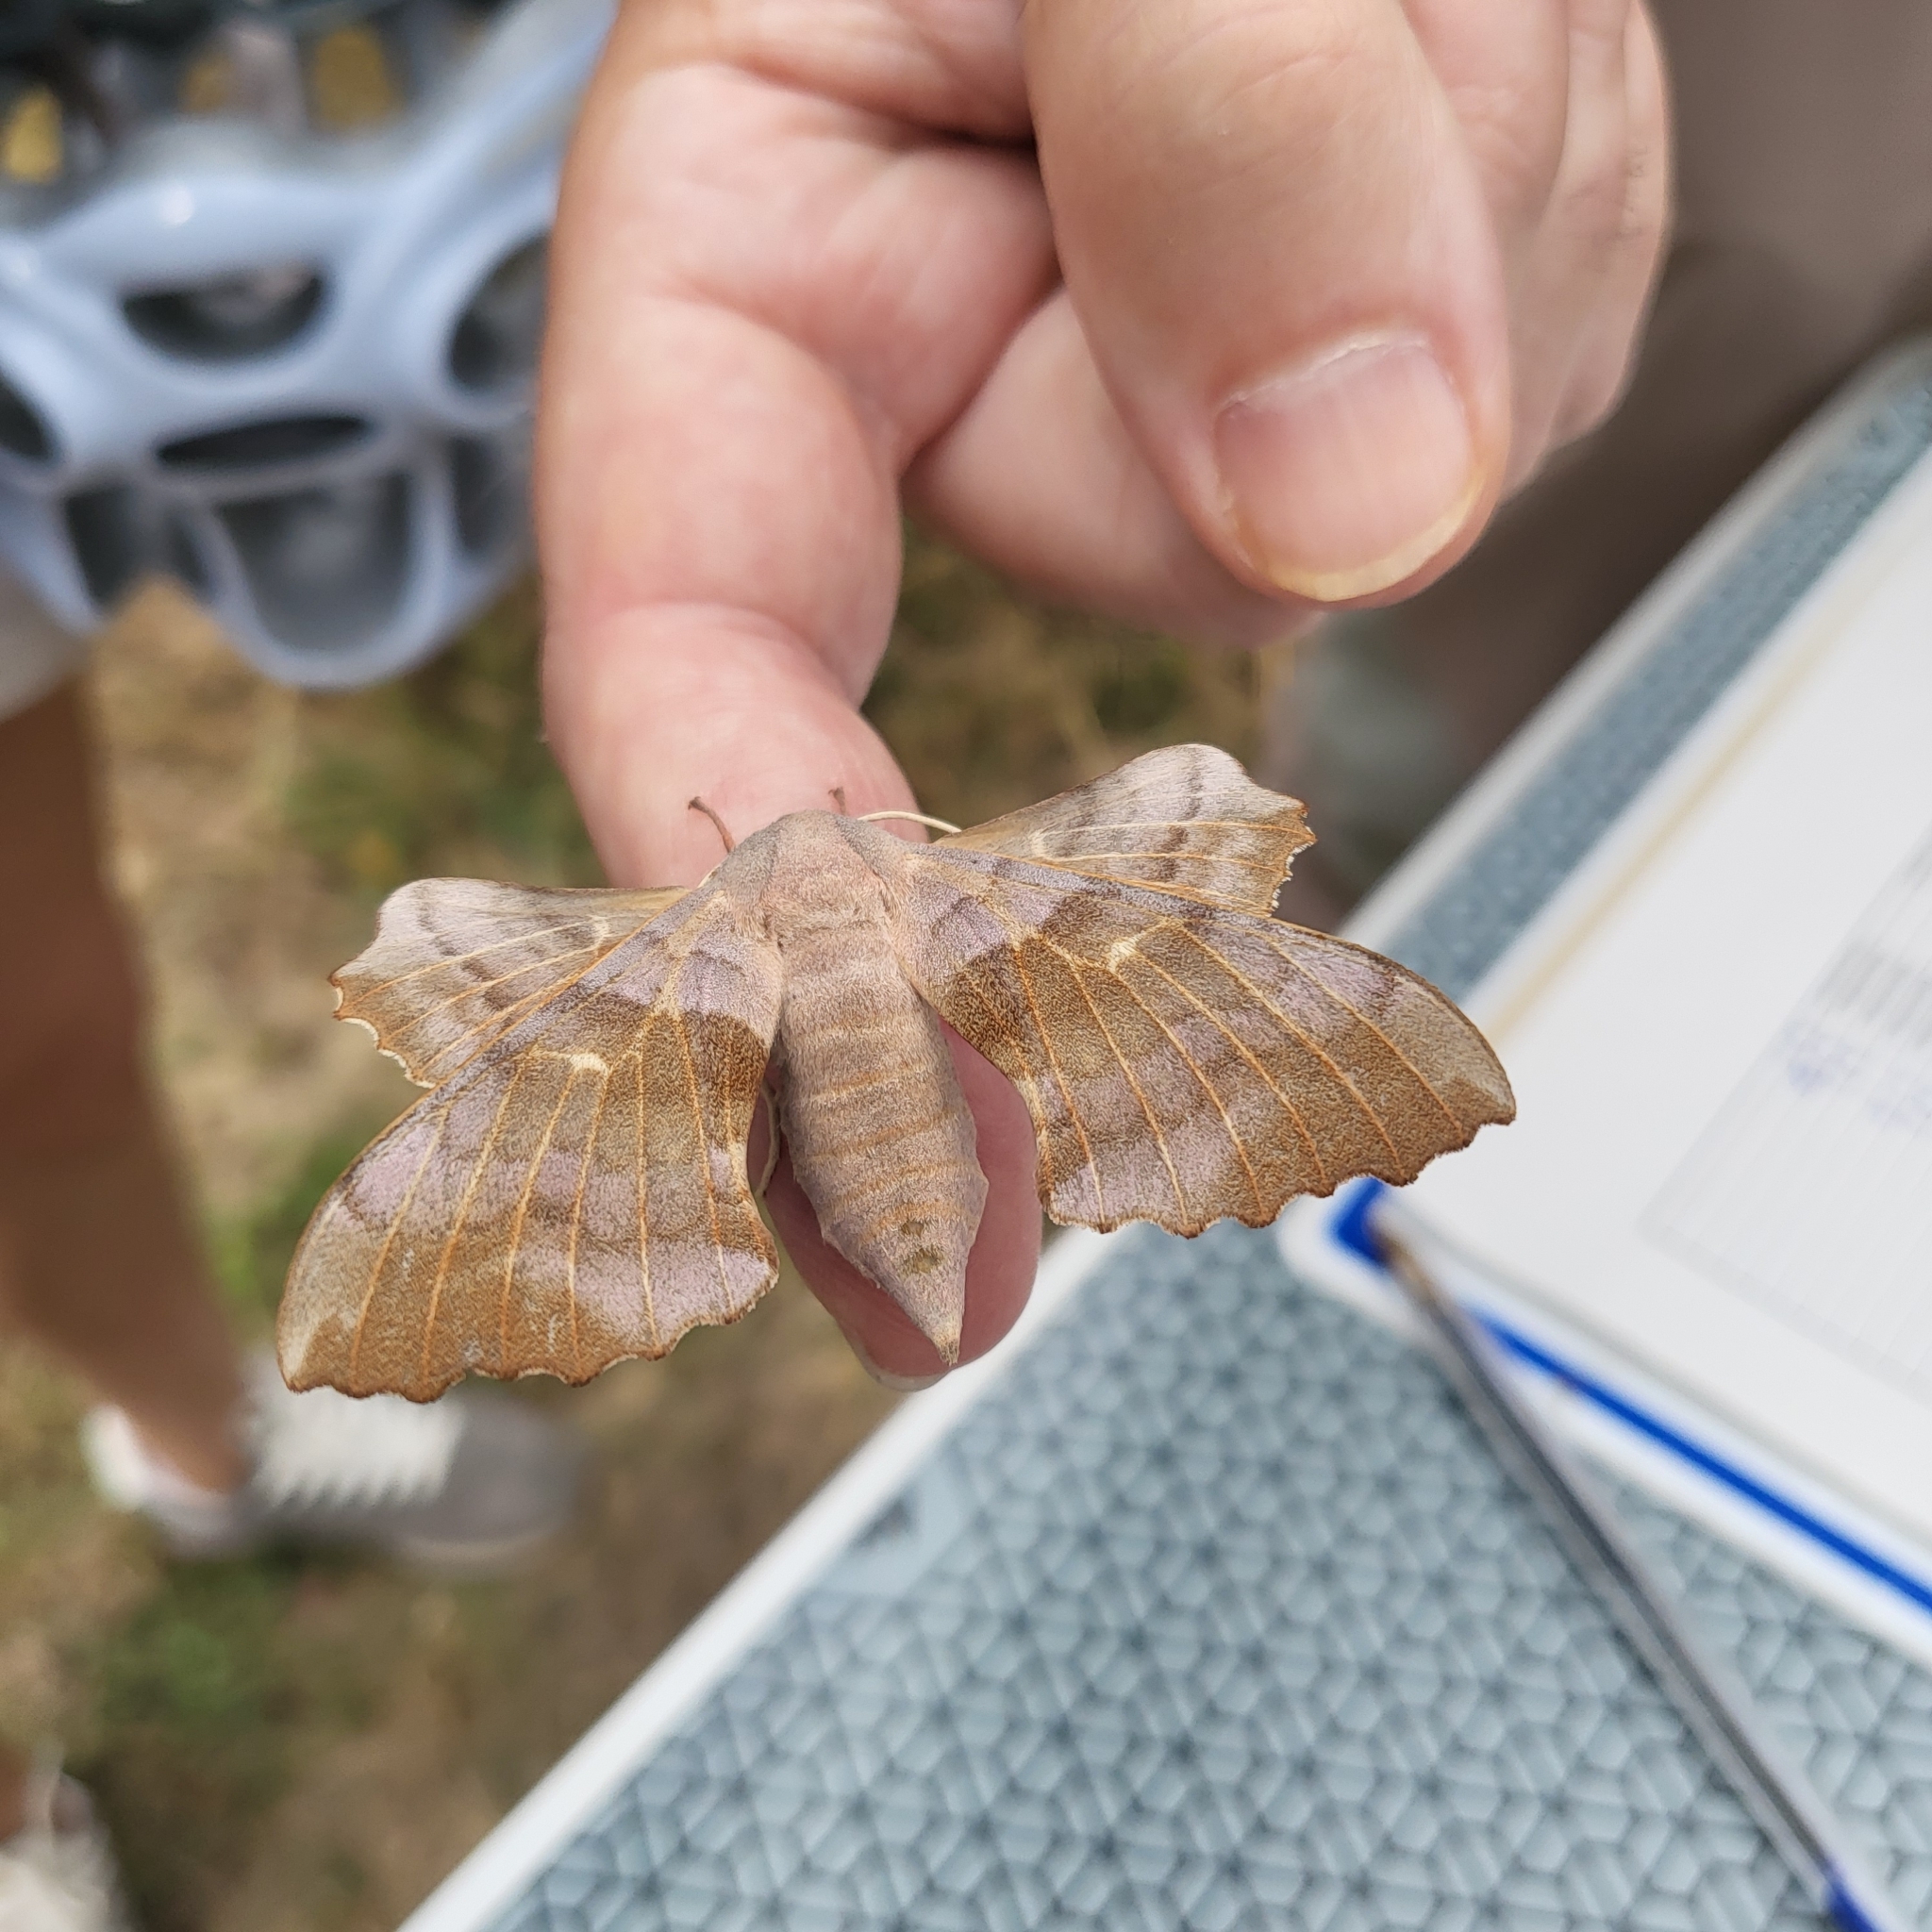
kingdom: Animalia
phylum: Arthropoda
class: Insecta
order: Lepidoptera
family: Sphingidae
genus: Laothoe
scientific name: Laothoe populi
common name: Poplar hawk-moth
